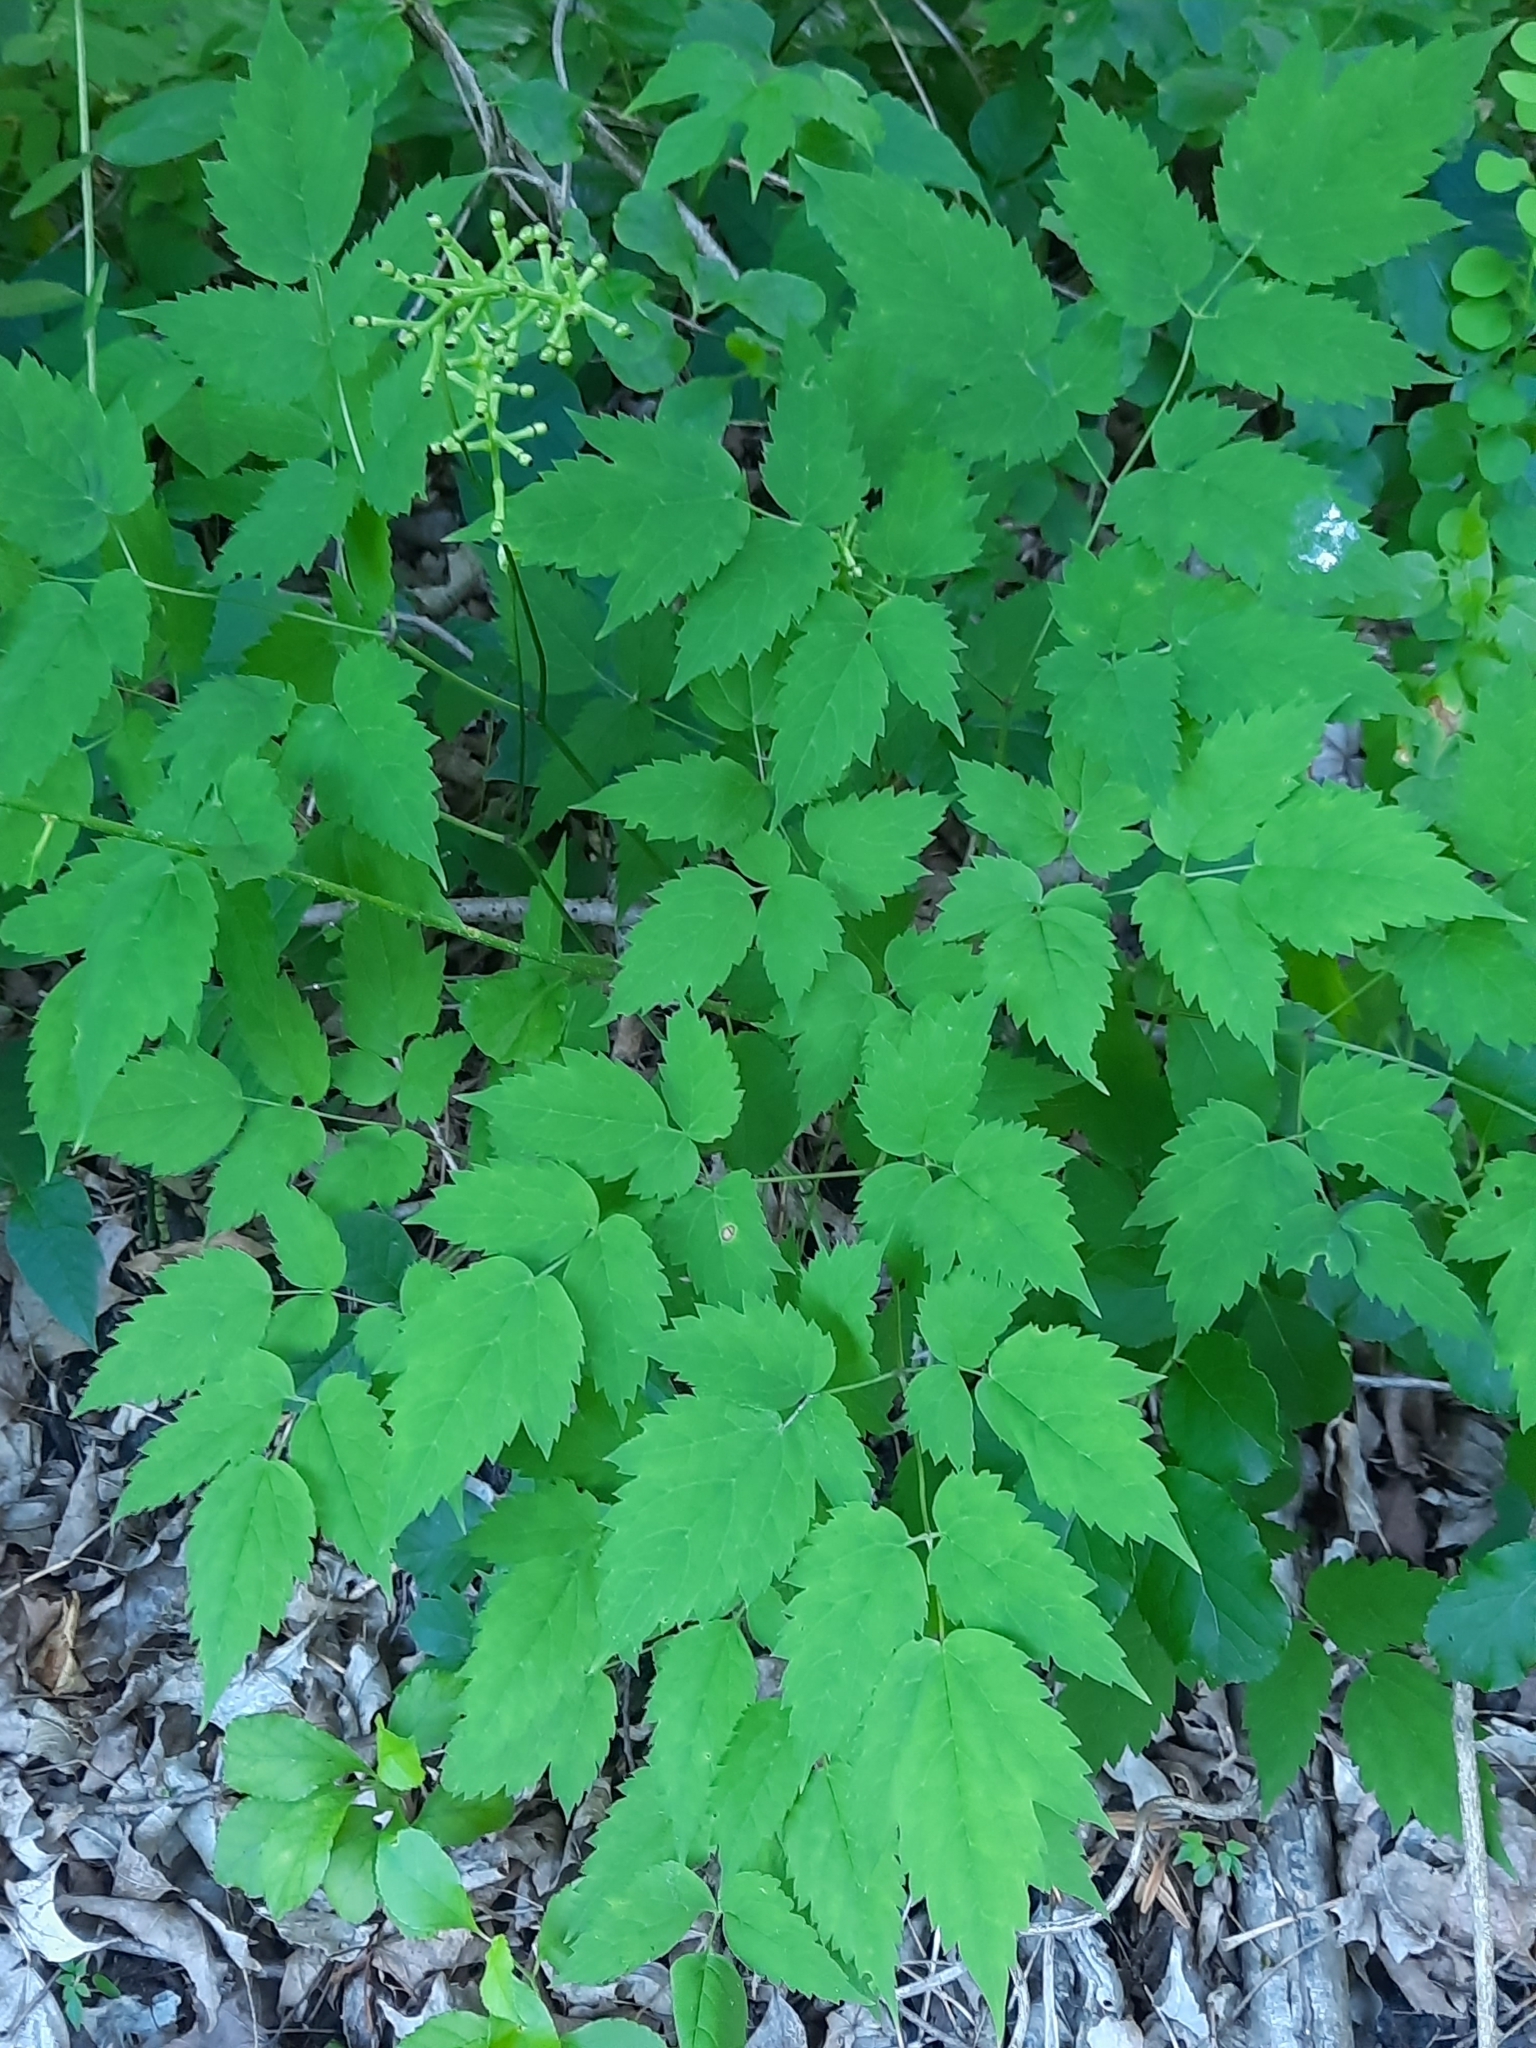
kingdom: Plantae
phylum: Tracheophyta
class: Magnoliopsida
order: Ranunculales
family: Ranunculaceae
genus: Actaea
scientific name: Actaea pachypoda
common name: Doll's-eyes
